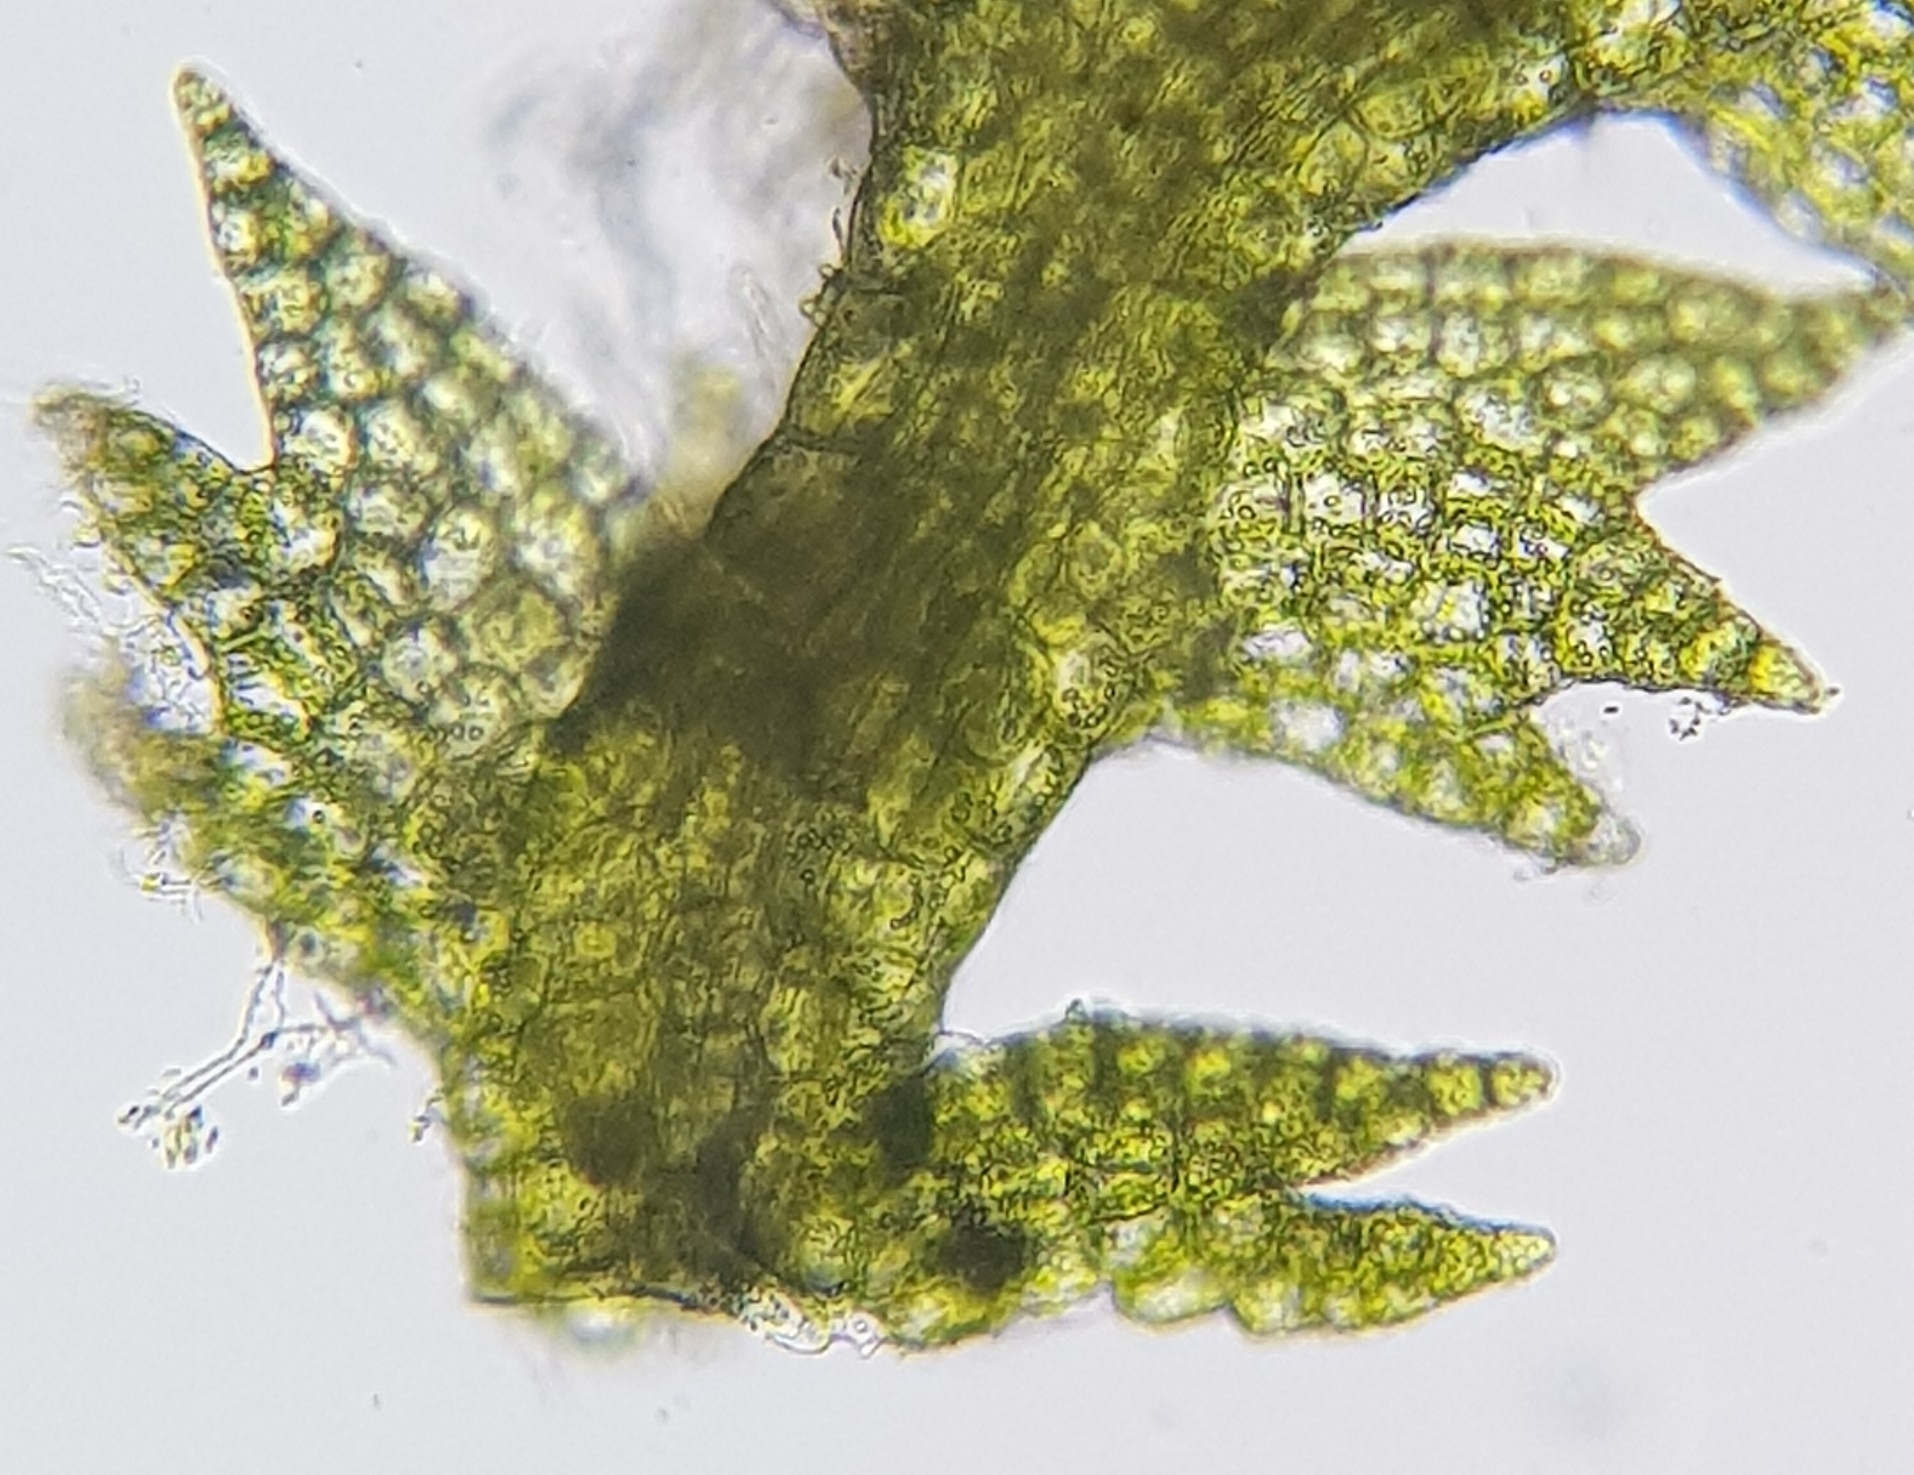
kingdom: Plantae
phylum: Marchantiophyta
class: Jungermanniopsida
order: Jungermanniales
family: Lepidoziaceae
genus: Lepidozia
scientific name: Lepidozia reptans
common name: Creeping fingerwort
